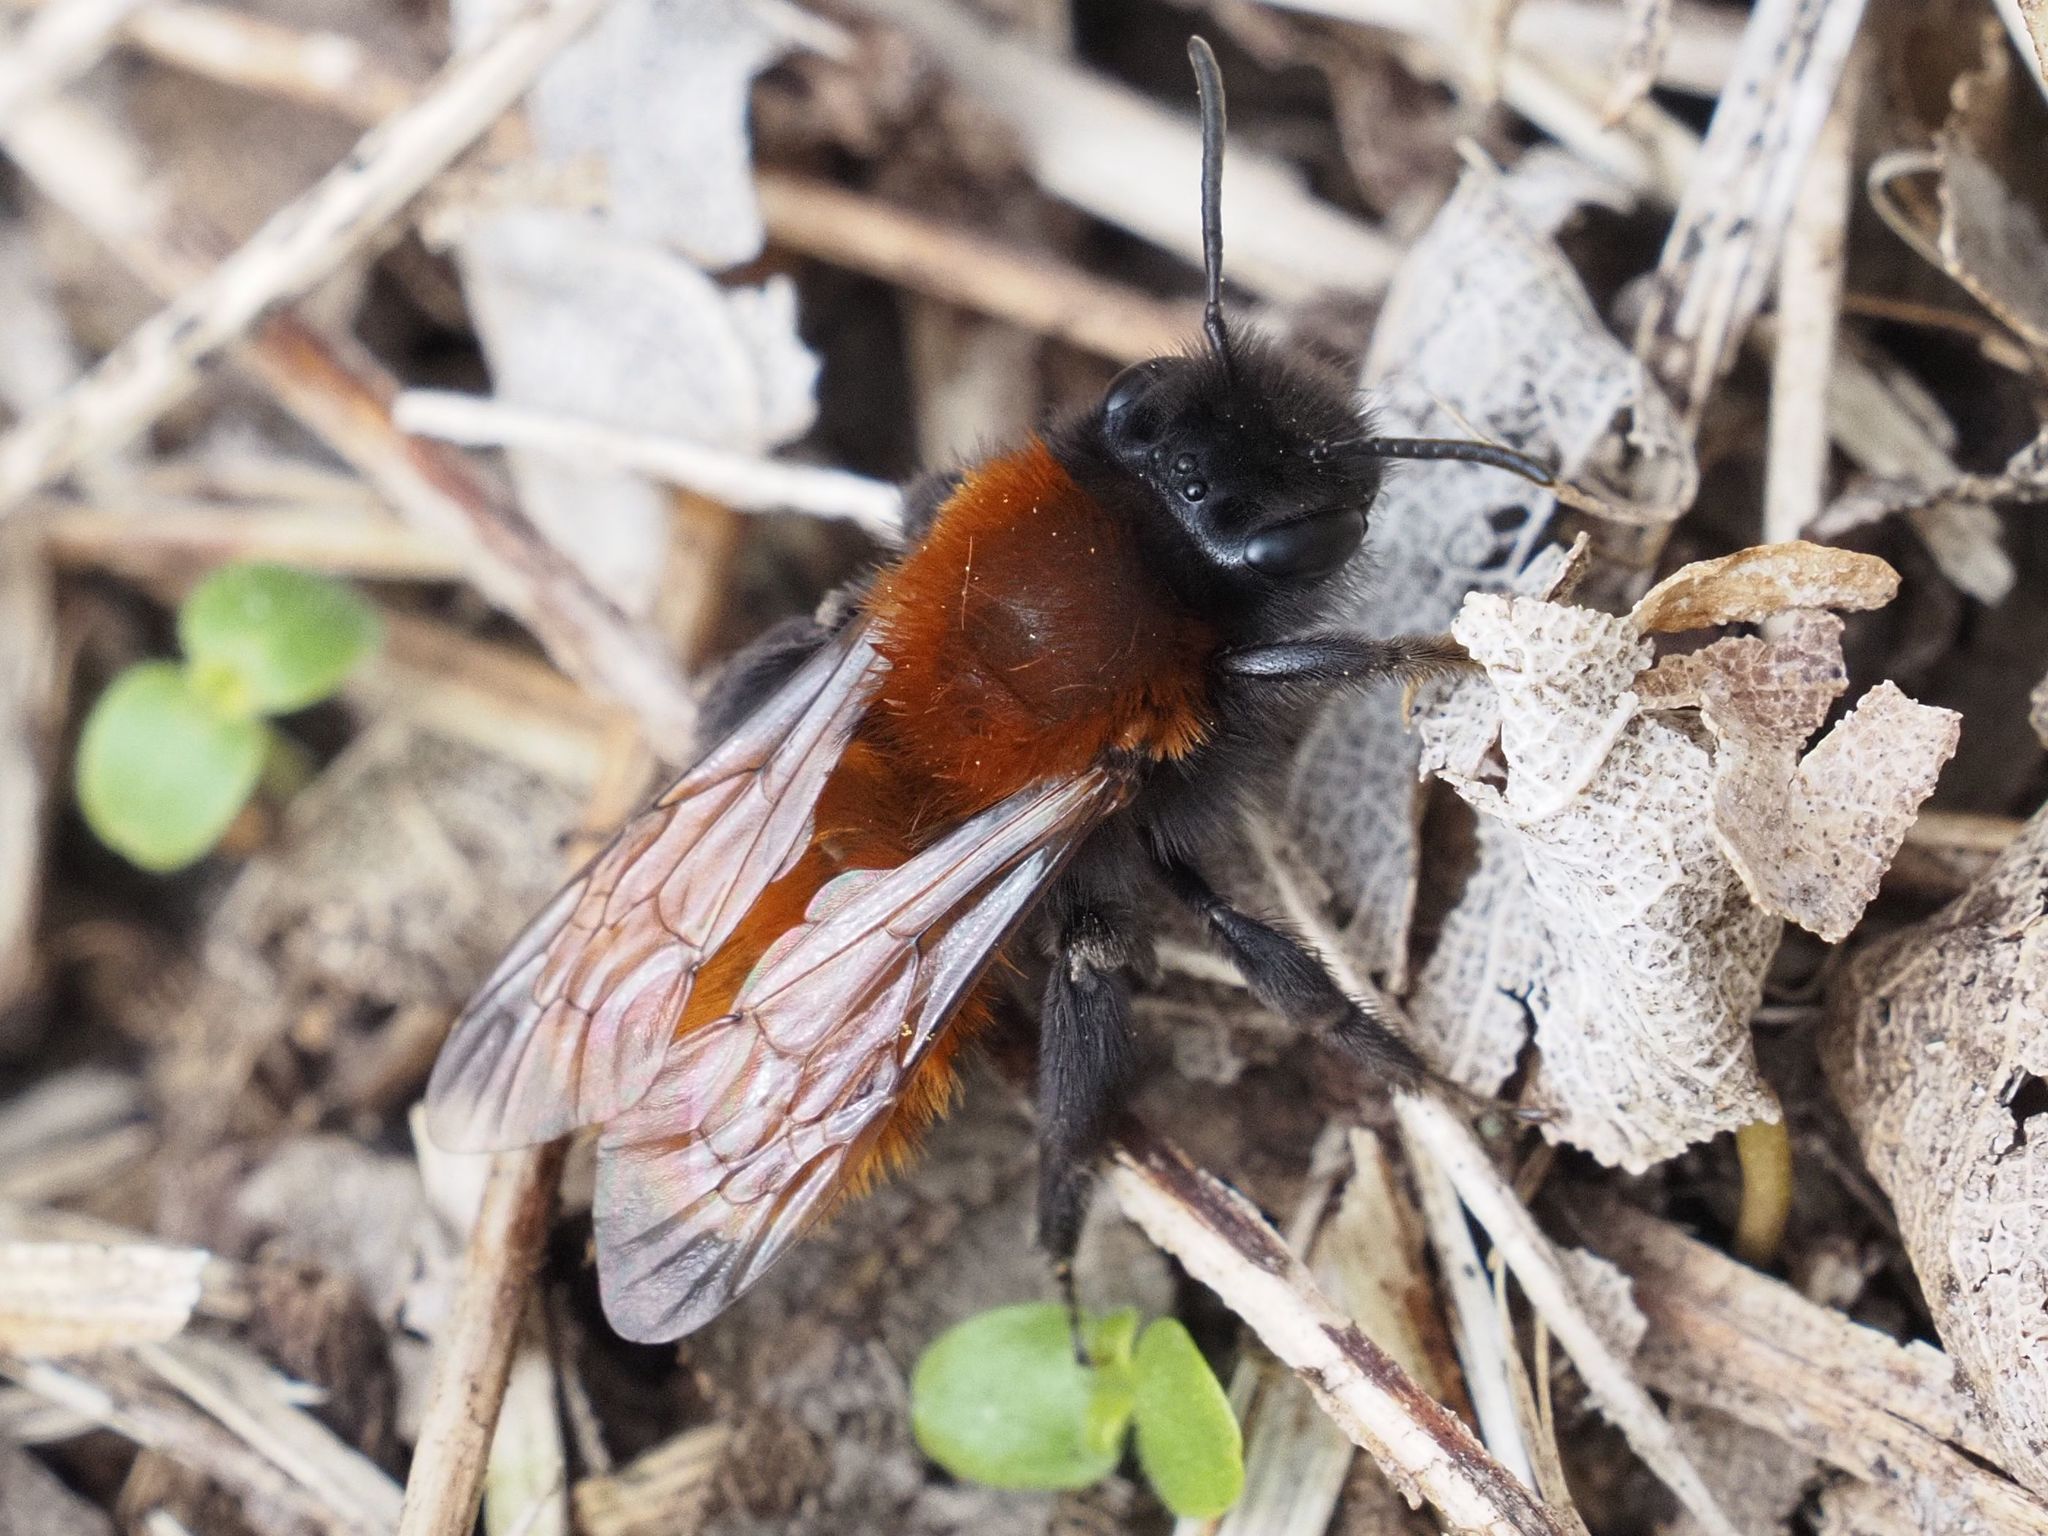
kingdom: Animalia
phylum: Arthropoda
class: Insecta
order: Hymenoptera
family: Andrenidae
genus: Andrena
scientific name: Andrena fulva
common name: Tawny mining bee
